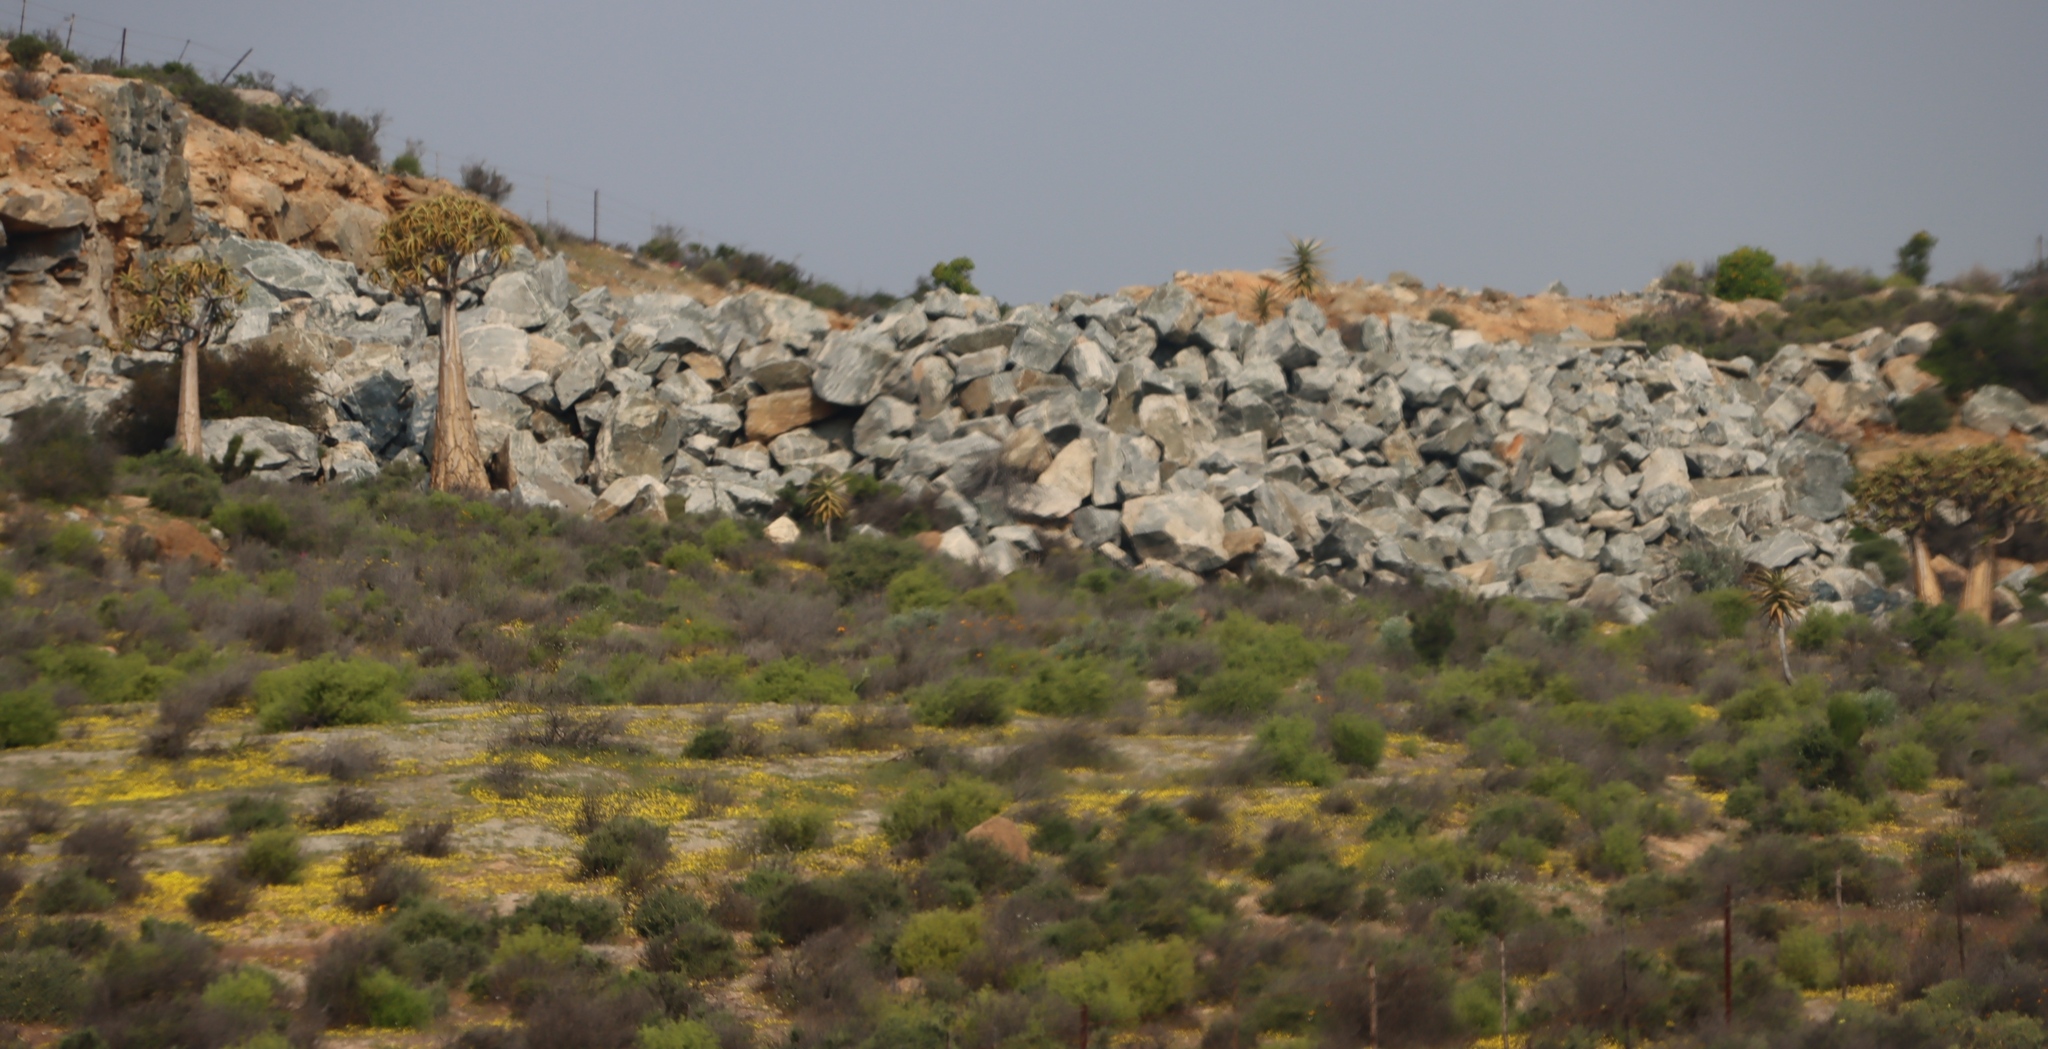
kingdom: Plantae
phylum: Tracheophyta
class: Liliopsida
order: Asparagales
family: Asphodelaceae
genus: Aloidendron
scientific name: Aloidendron dichotomum
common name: Quiver tree
